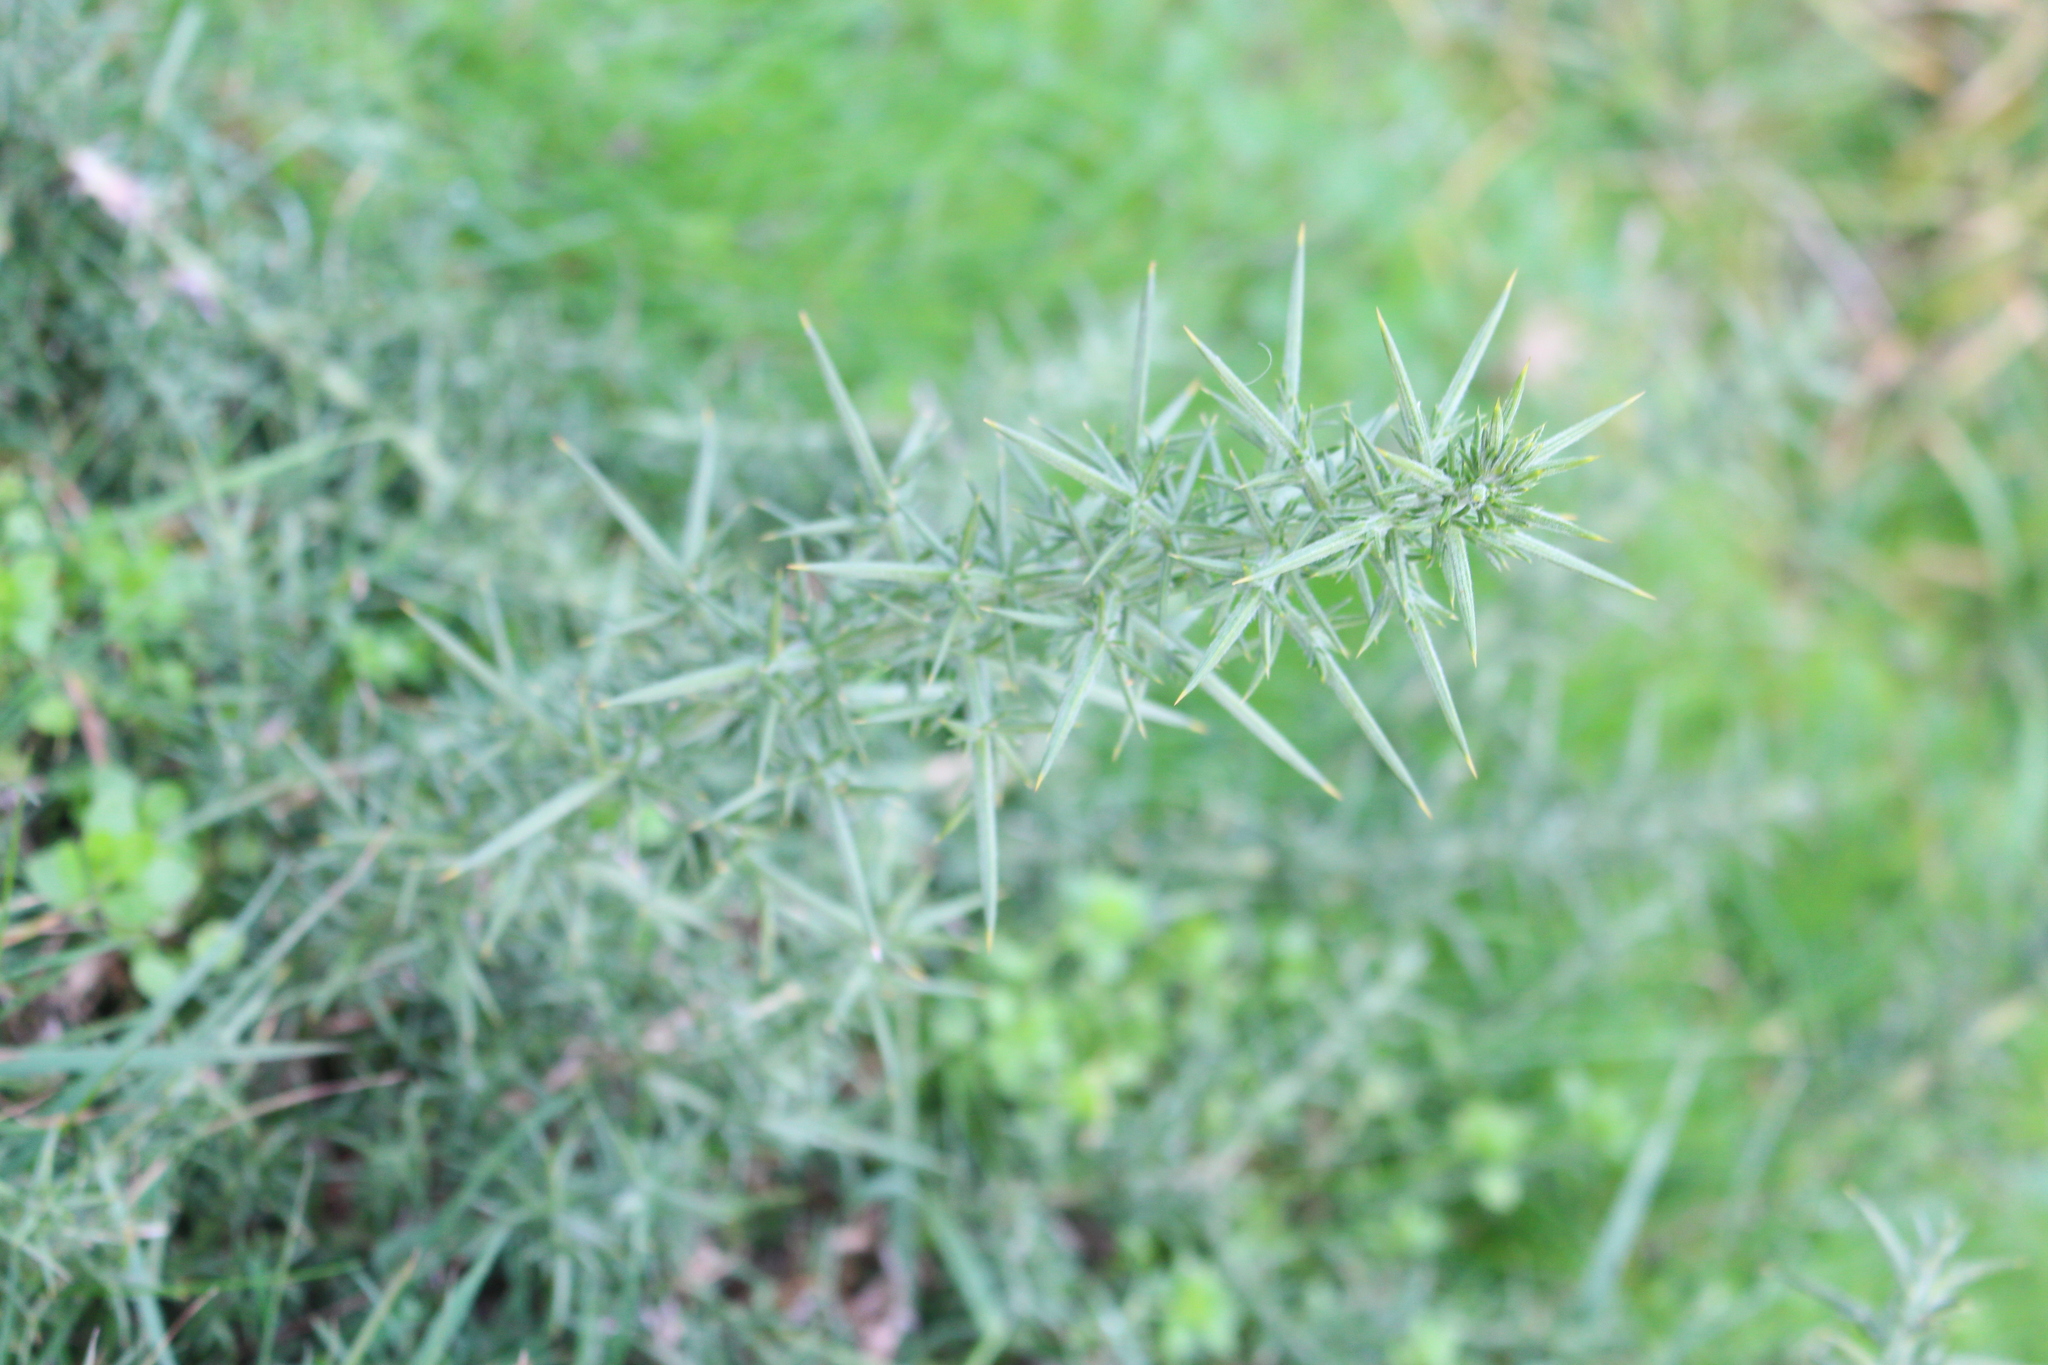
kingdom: Plantae
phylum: Tracheophyta
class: Magnoliopsida
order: Fabales
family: Fabaceae
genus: Ulex
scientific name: Ulex europaeus
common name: Common gorse
